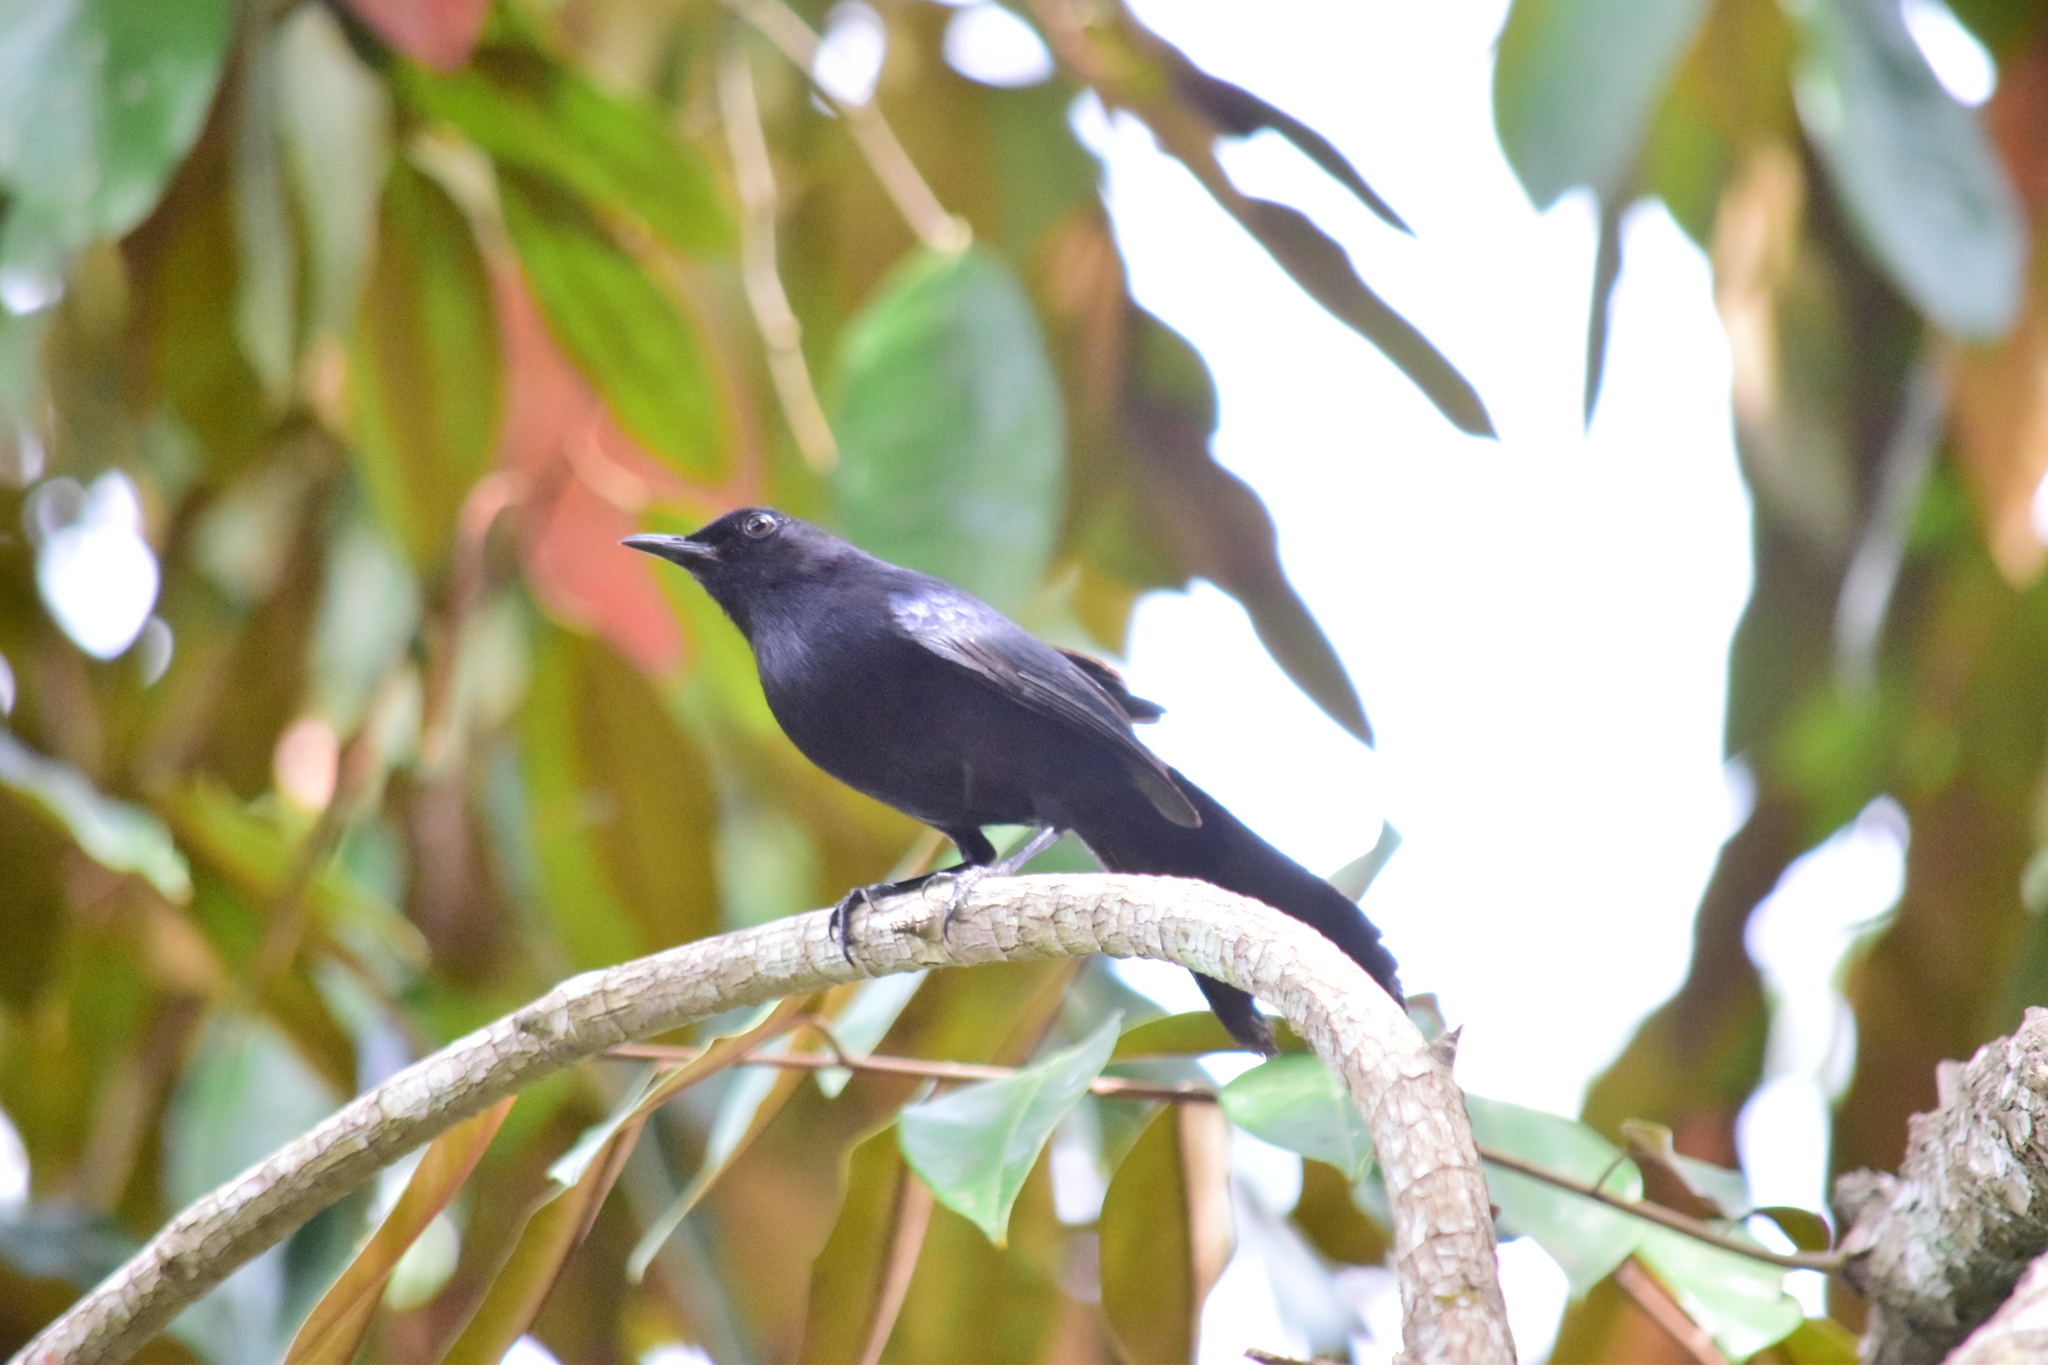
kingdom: Animalia
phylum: Chordata
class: Aves
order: Passeriformes
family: Mimidae
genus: Melanoptila
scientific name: Melanoptila glabrirostris
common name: Black catbird
